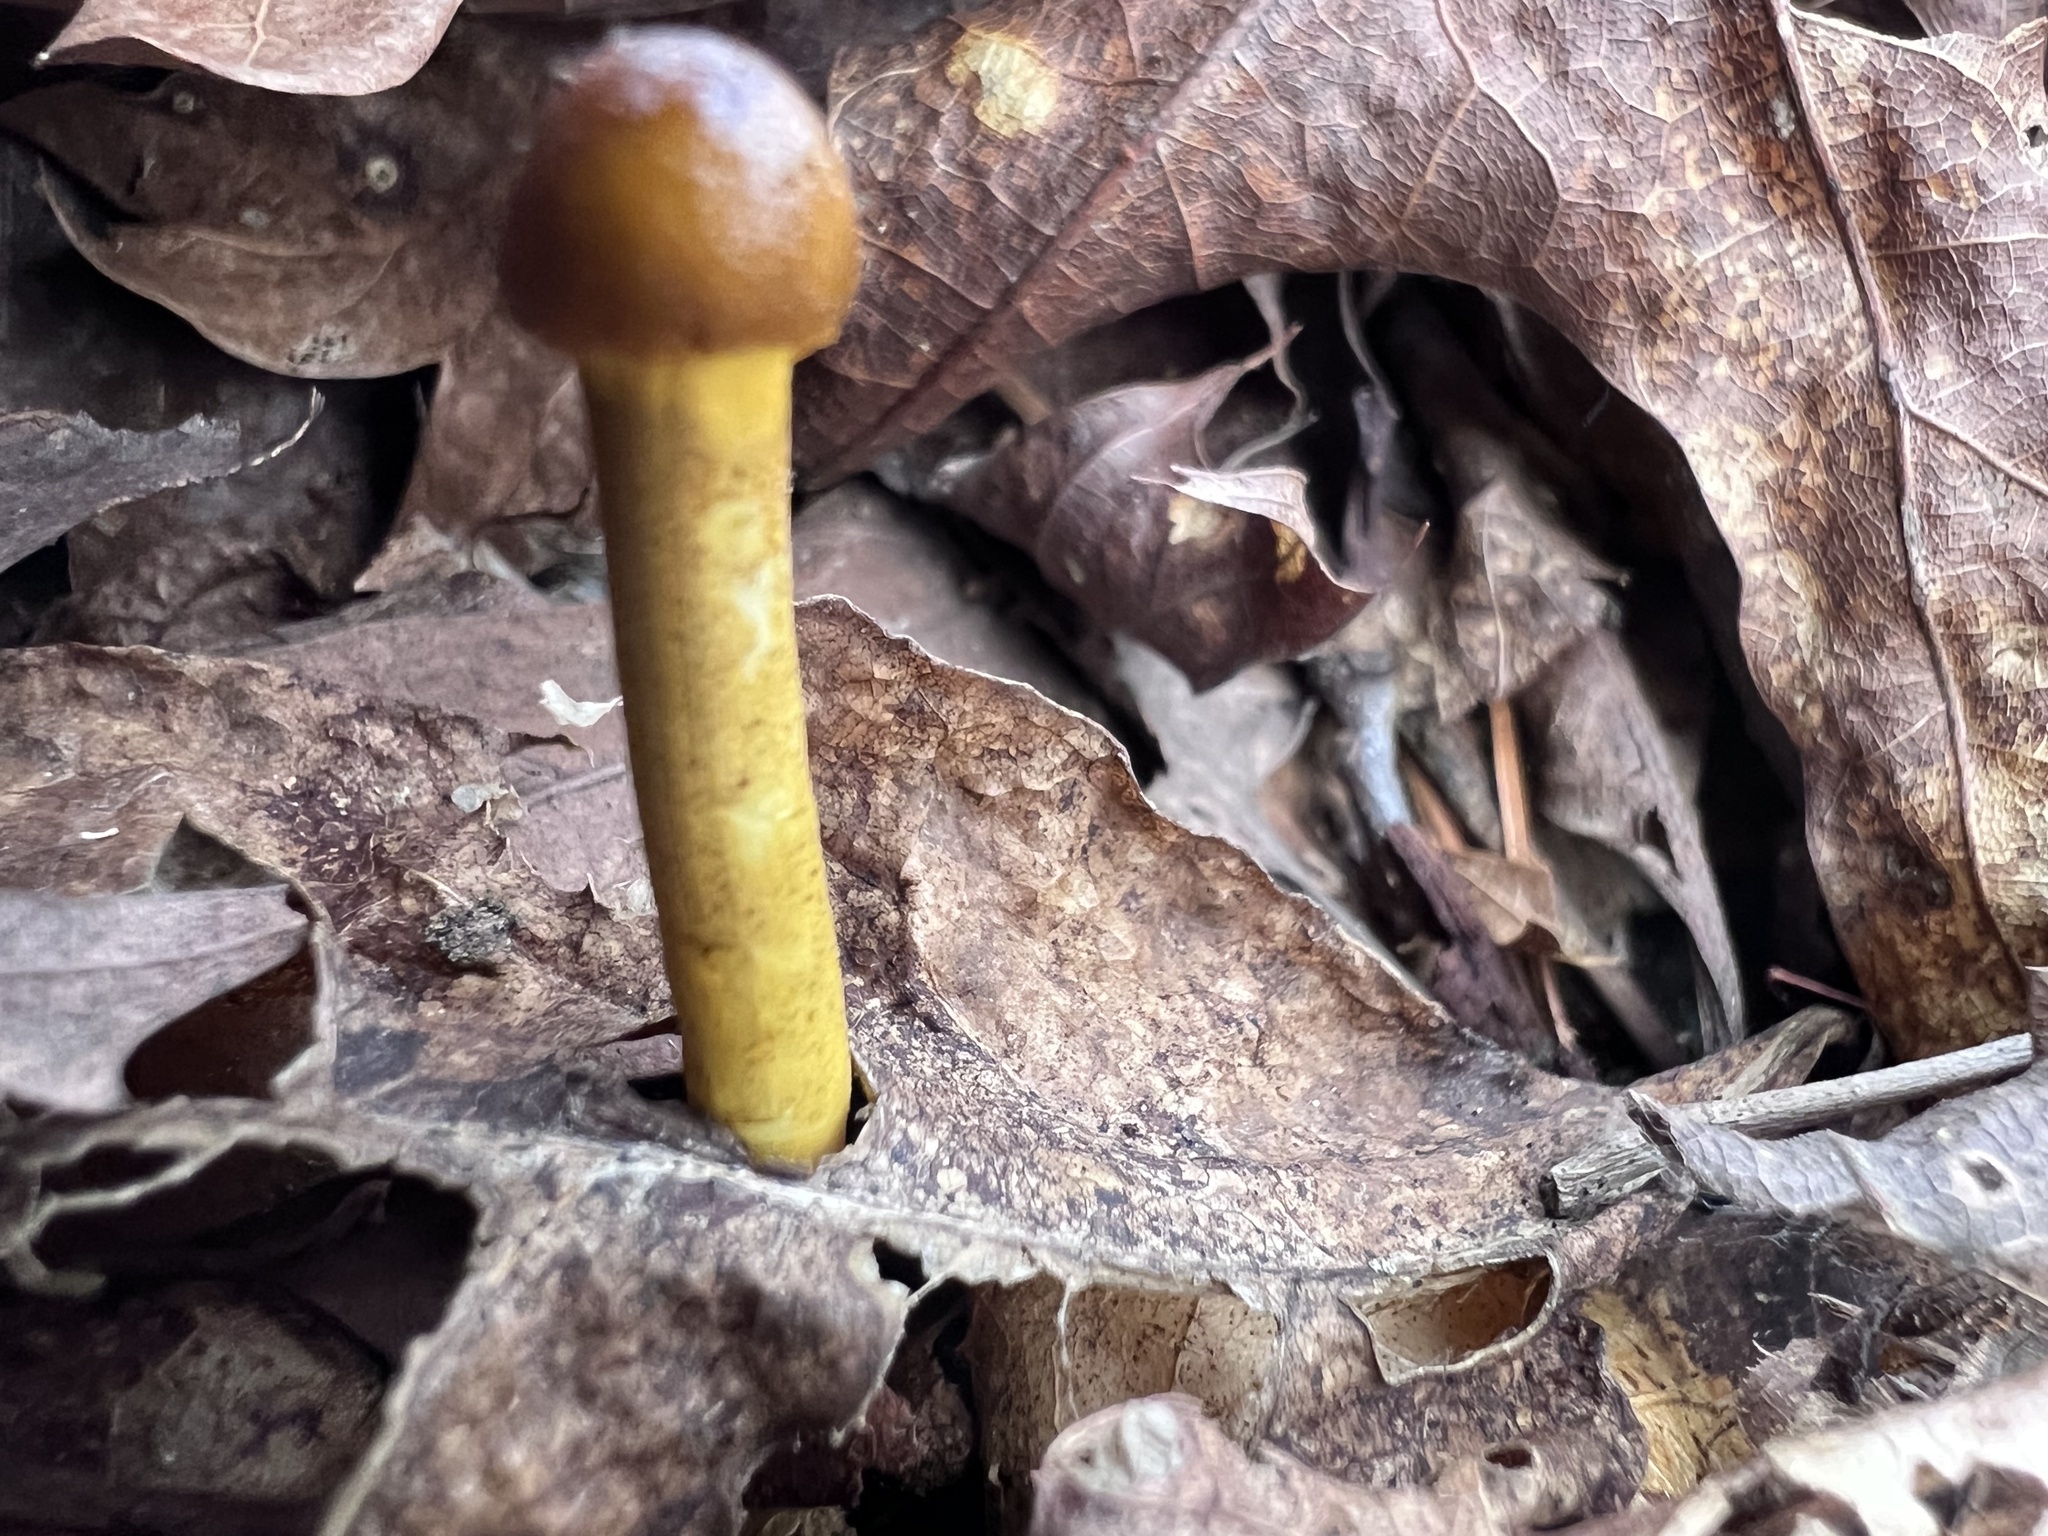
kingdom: Fungi
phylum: Ascomycota
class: Sordariomycetes
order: Hypocreales
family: Ophiocordycipitaceae
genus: Tolypocladium
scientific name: Tolypocladium longisegmentatum
